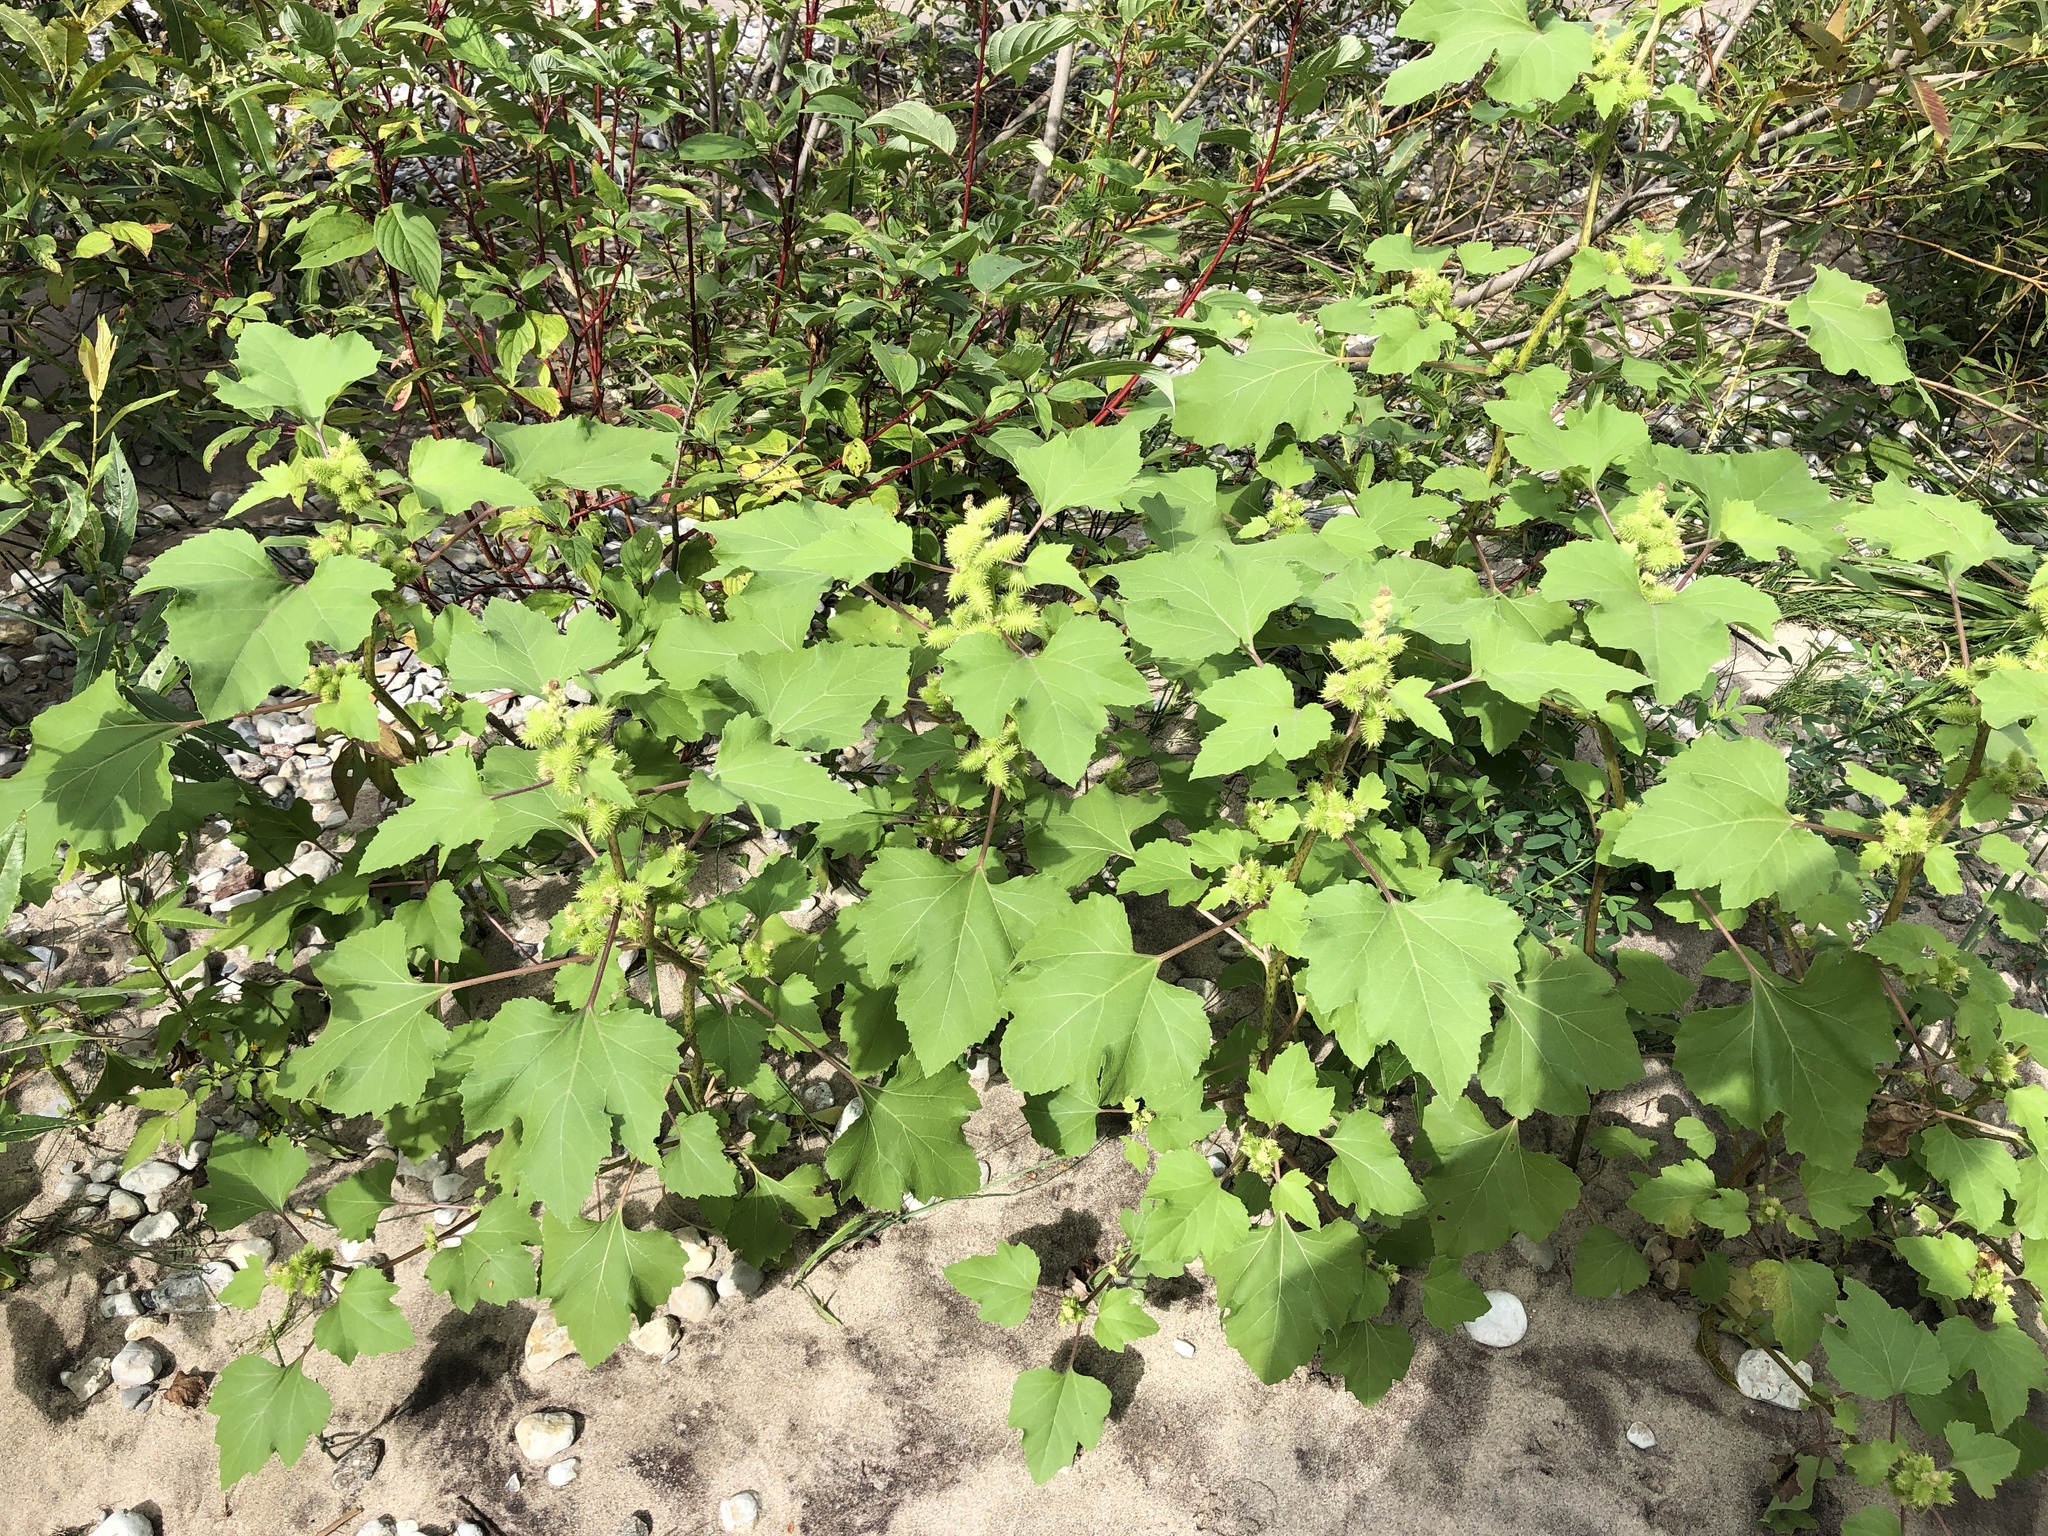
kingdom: Plantae
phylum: Tracheophyta
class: Magnoliopsida
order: Asterales
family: Asteraceae
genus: Xanthium
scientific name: Xanthium strumarium
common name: Rough cocklebur
